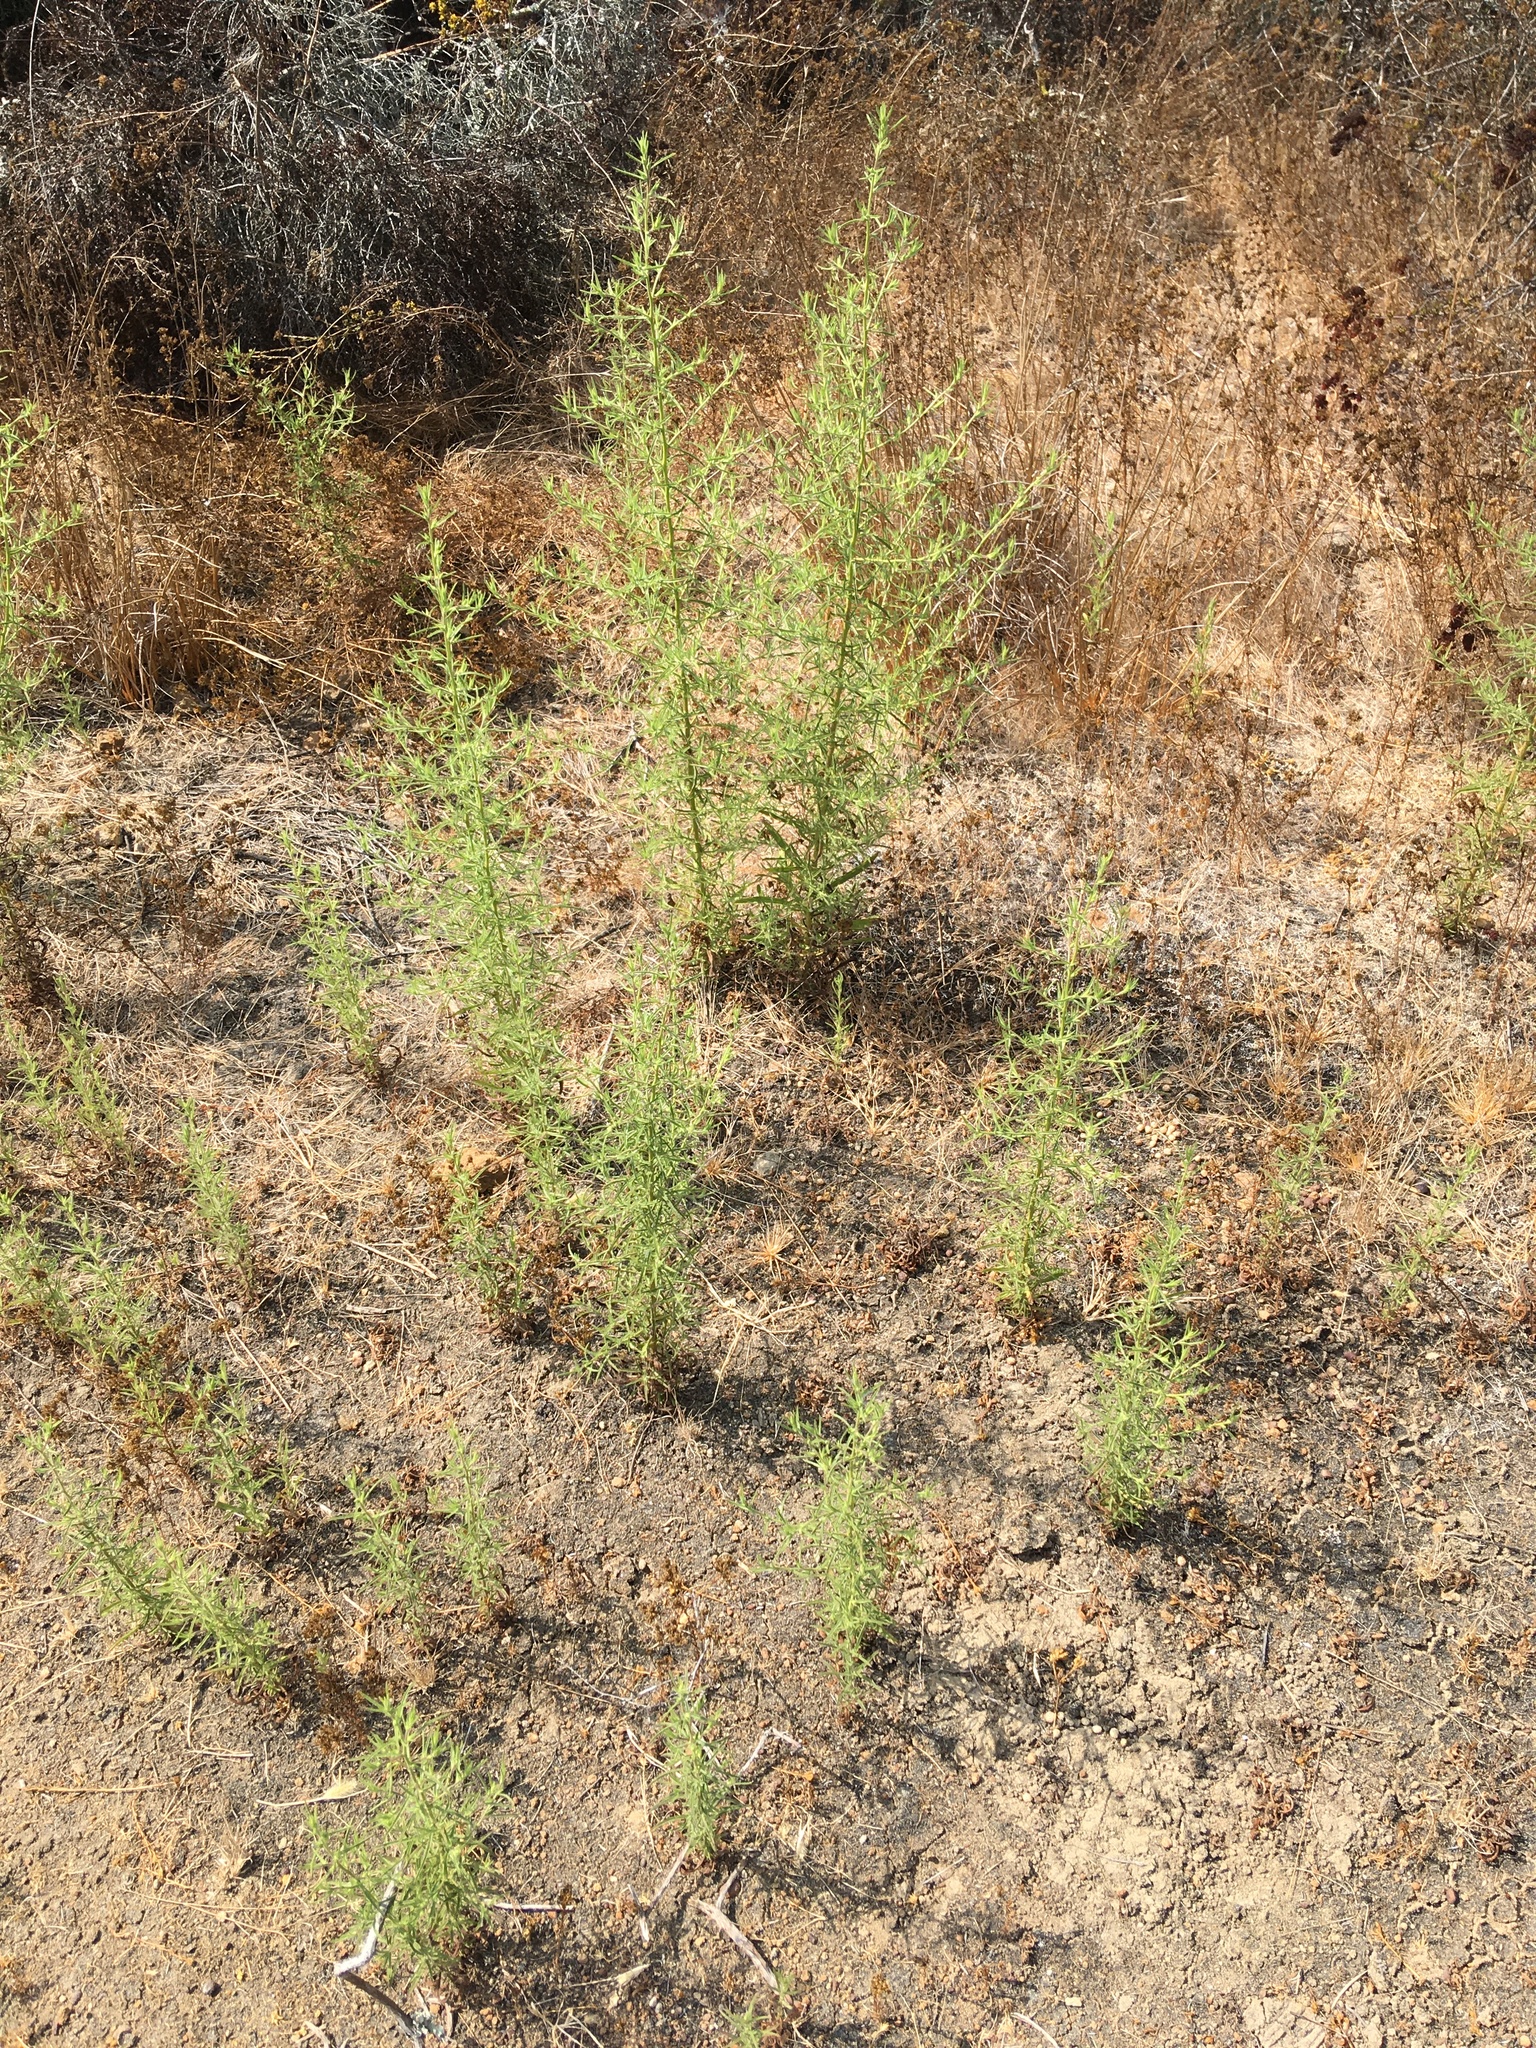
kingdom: Plantae
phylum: Tracheophyta
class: Magnoliopsida
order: Asterales
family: Asteraceae
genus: Dittrichia
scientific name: Dittrichia graveolens
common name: Stinking fleabane
